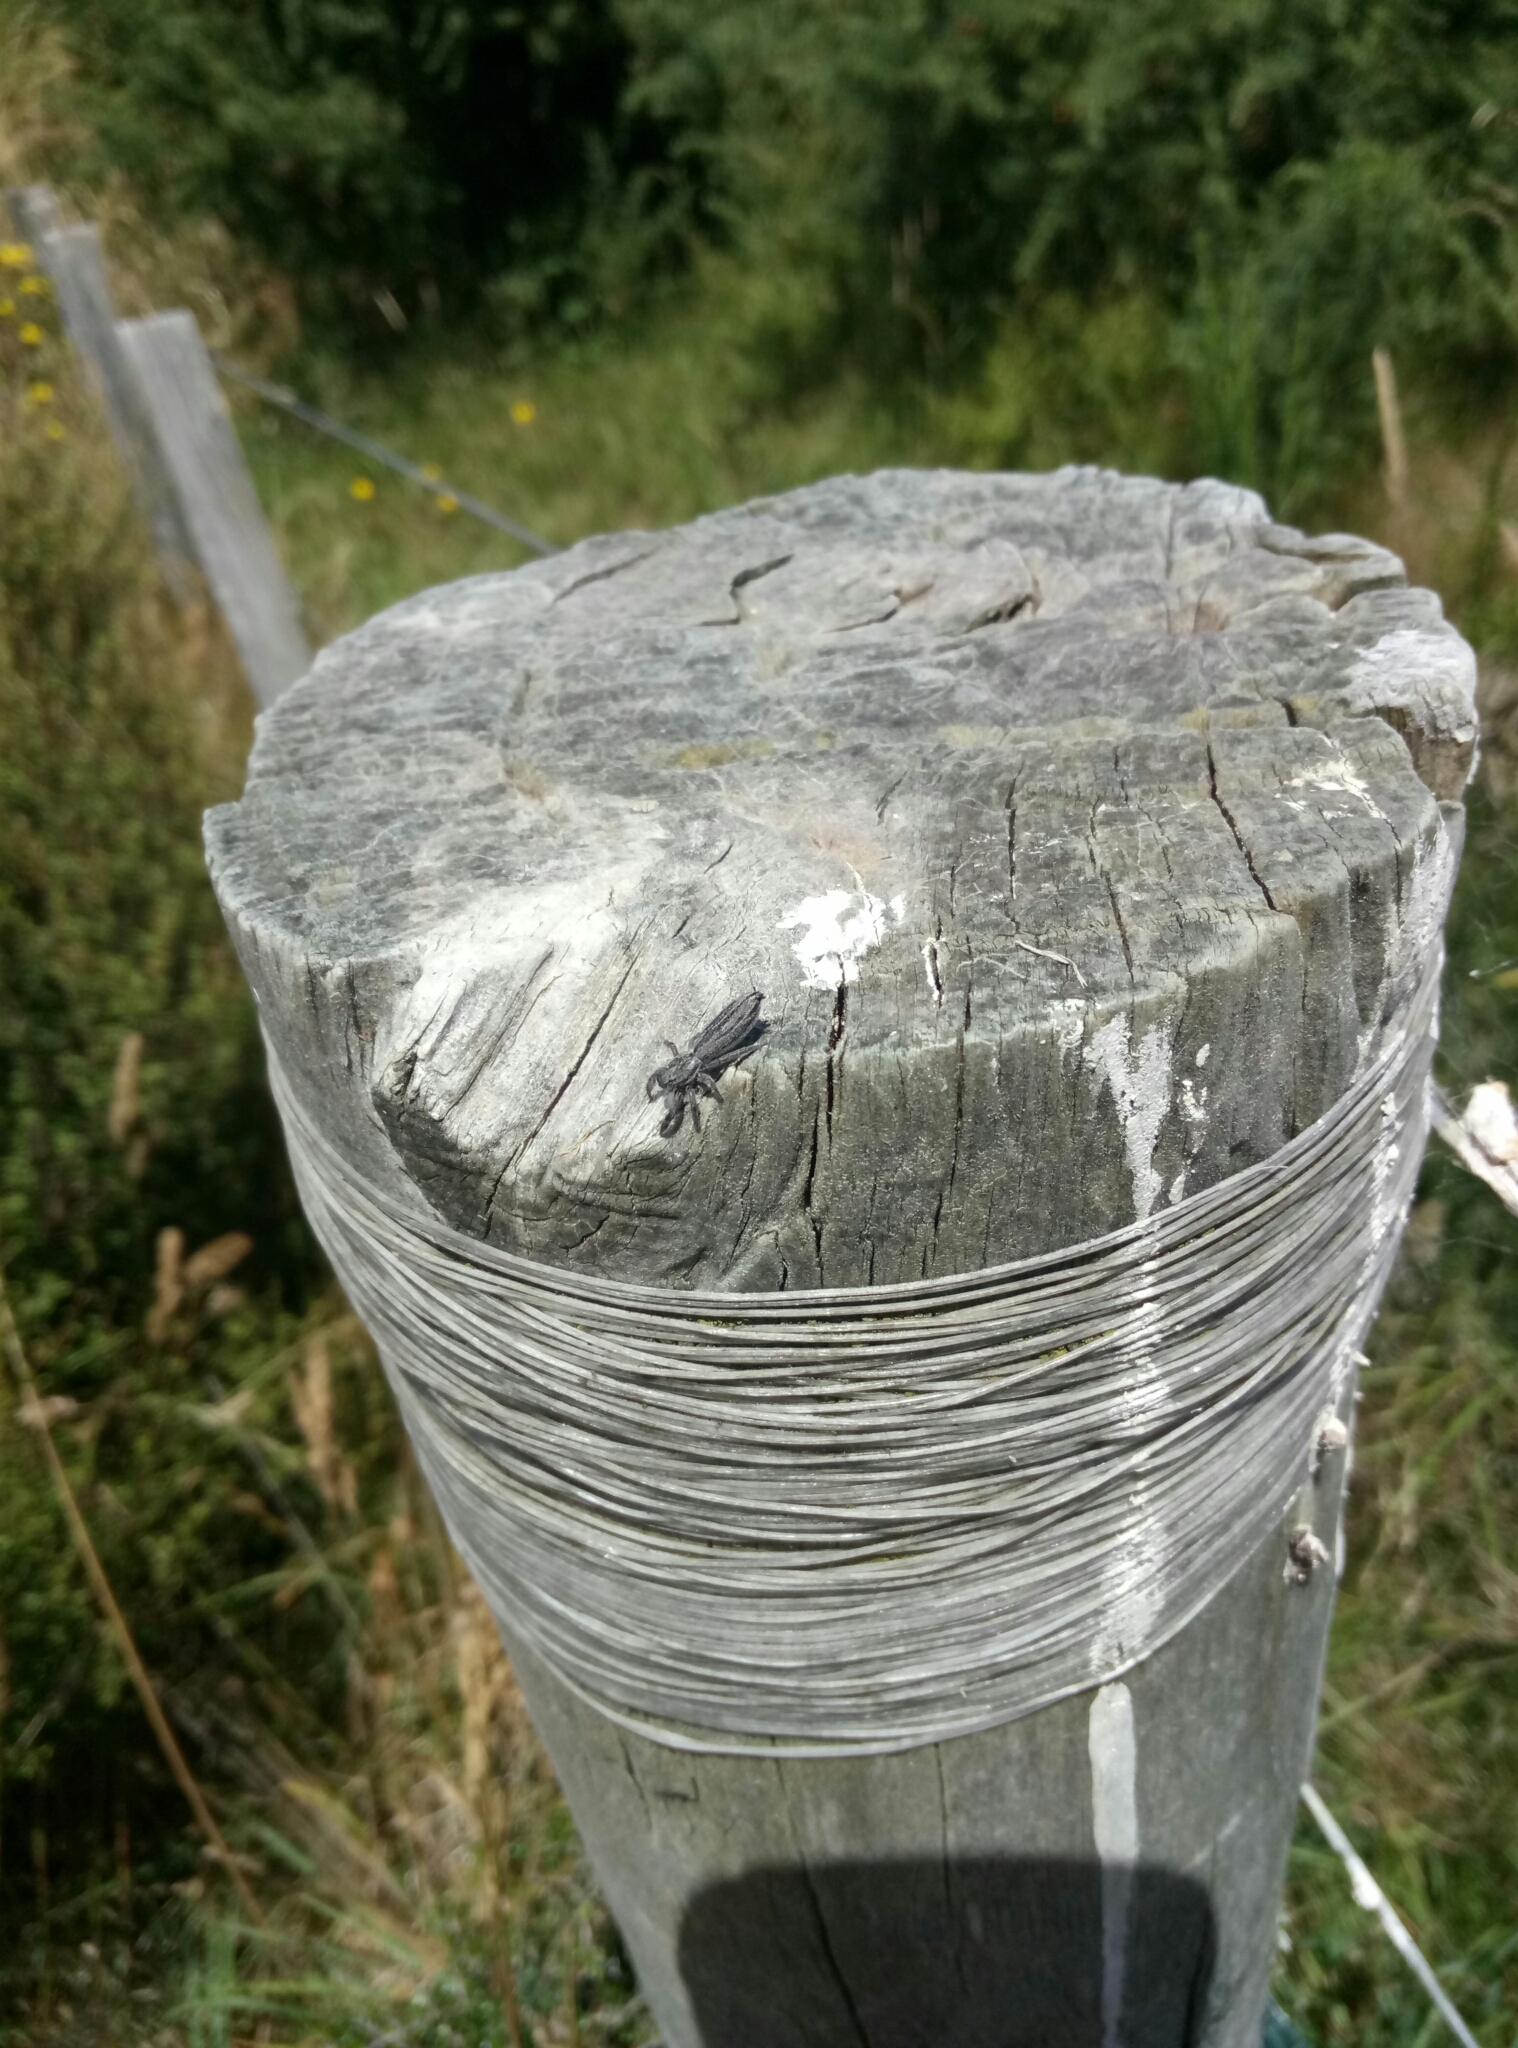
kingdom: Animalia
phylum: Arthropoda
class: Arachnida
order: Araneae
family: Salticidae
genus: Holoplatys
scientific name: Holoplatys apressus
